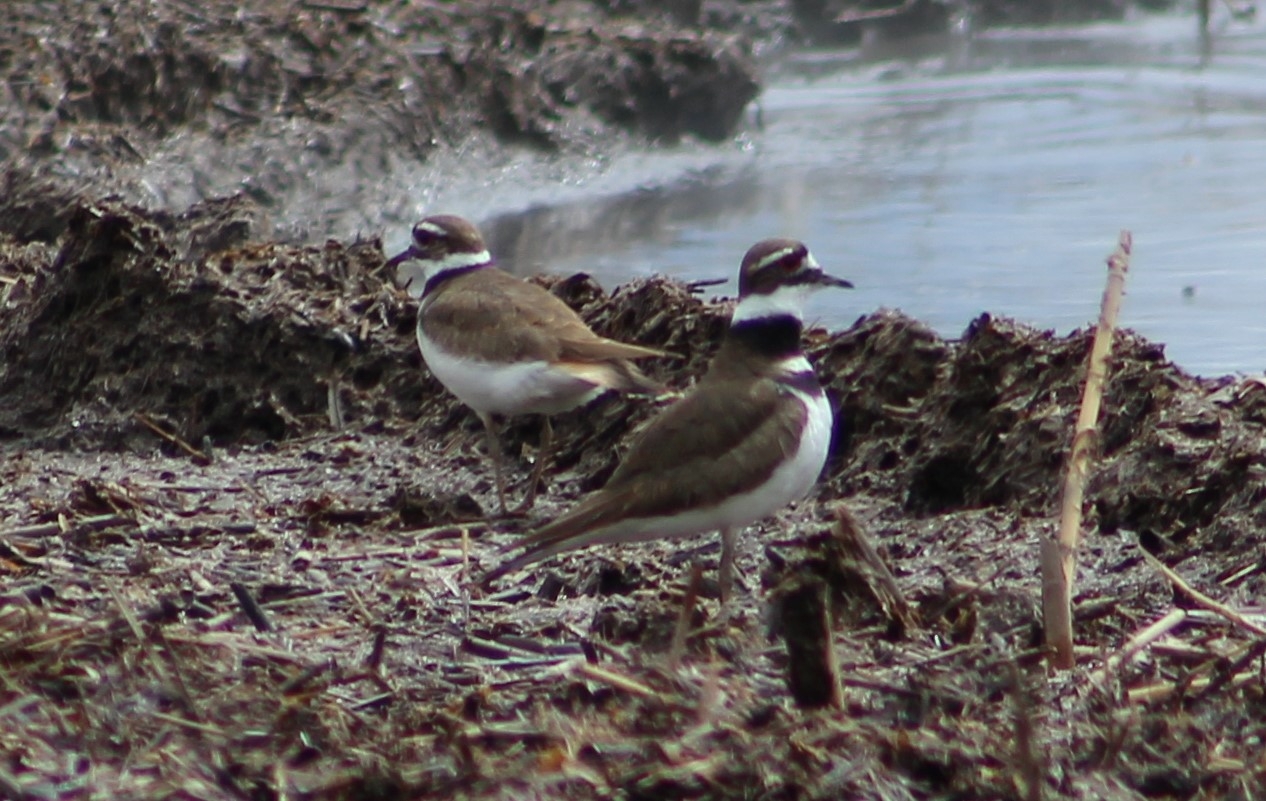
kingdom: Animalia
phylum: Chordata
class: Aves
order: Charadriiformes
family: Charadriidae
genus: Charadrius
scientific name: Charadrius vociferus
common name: Killdeer
